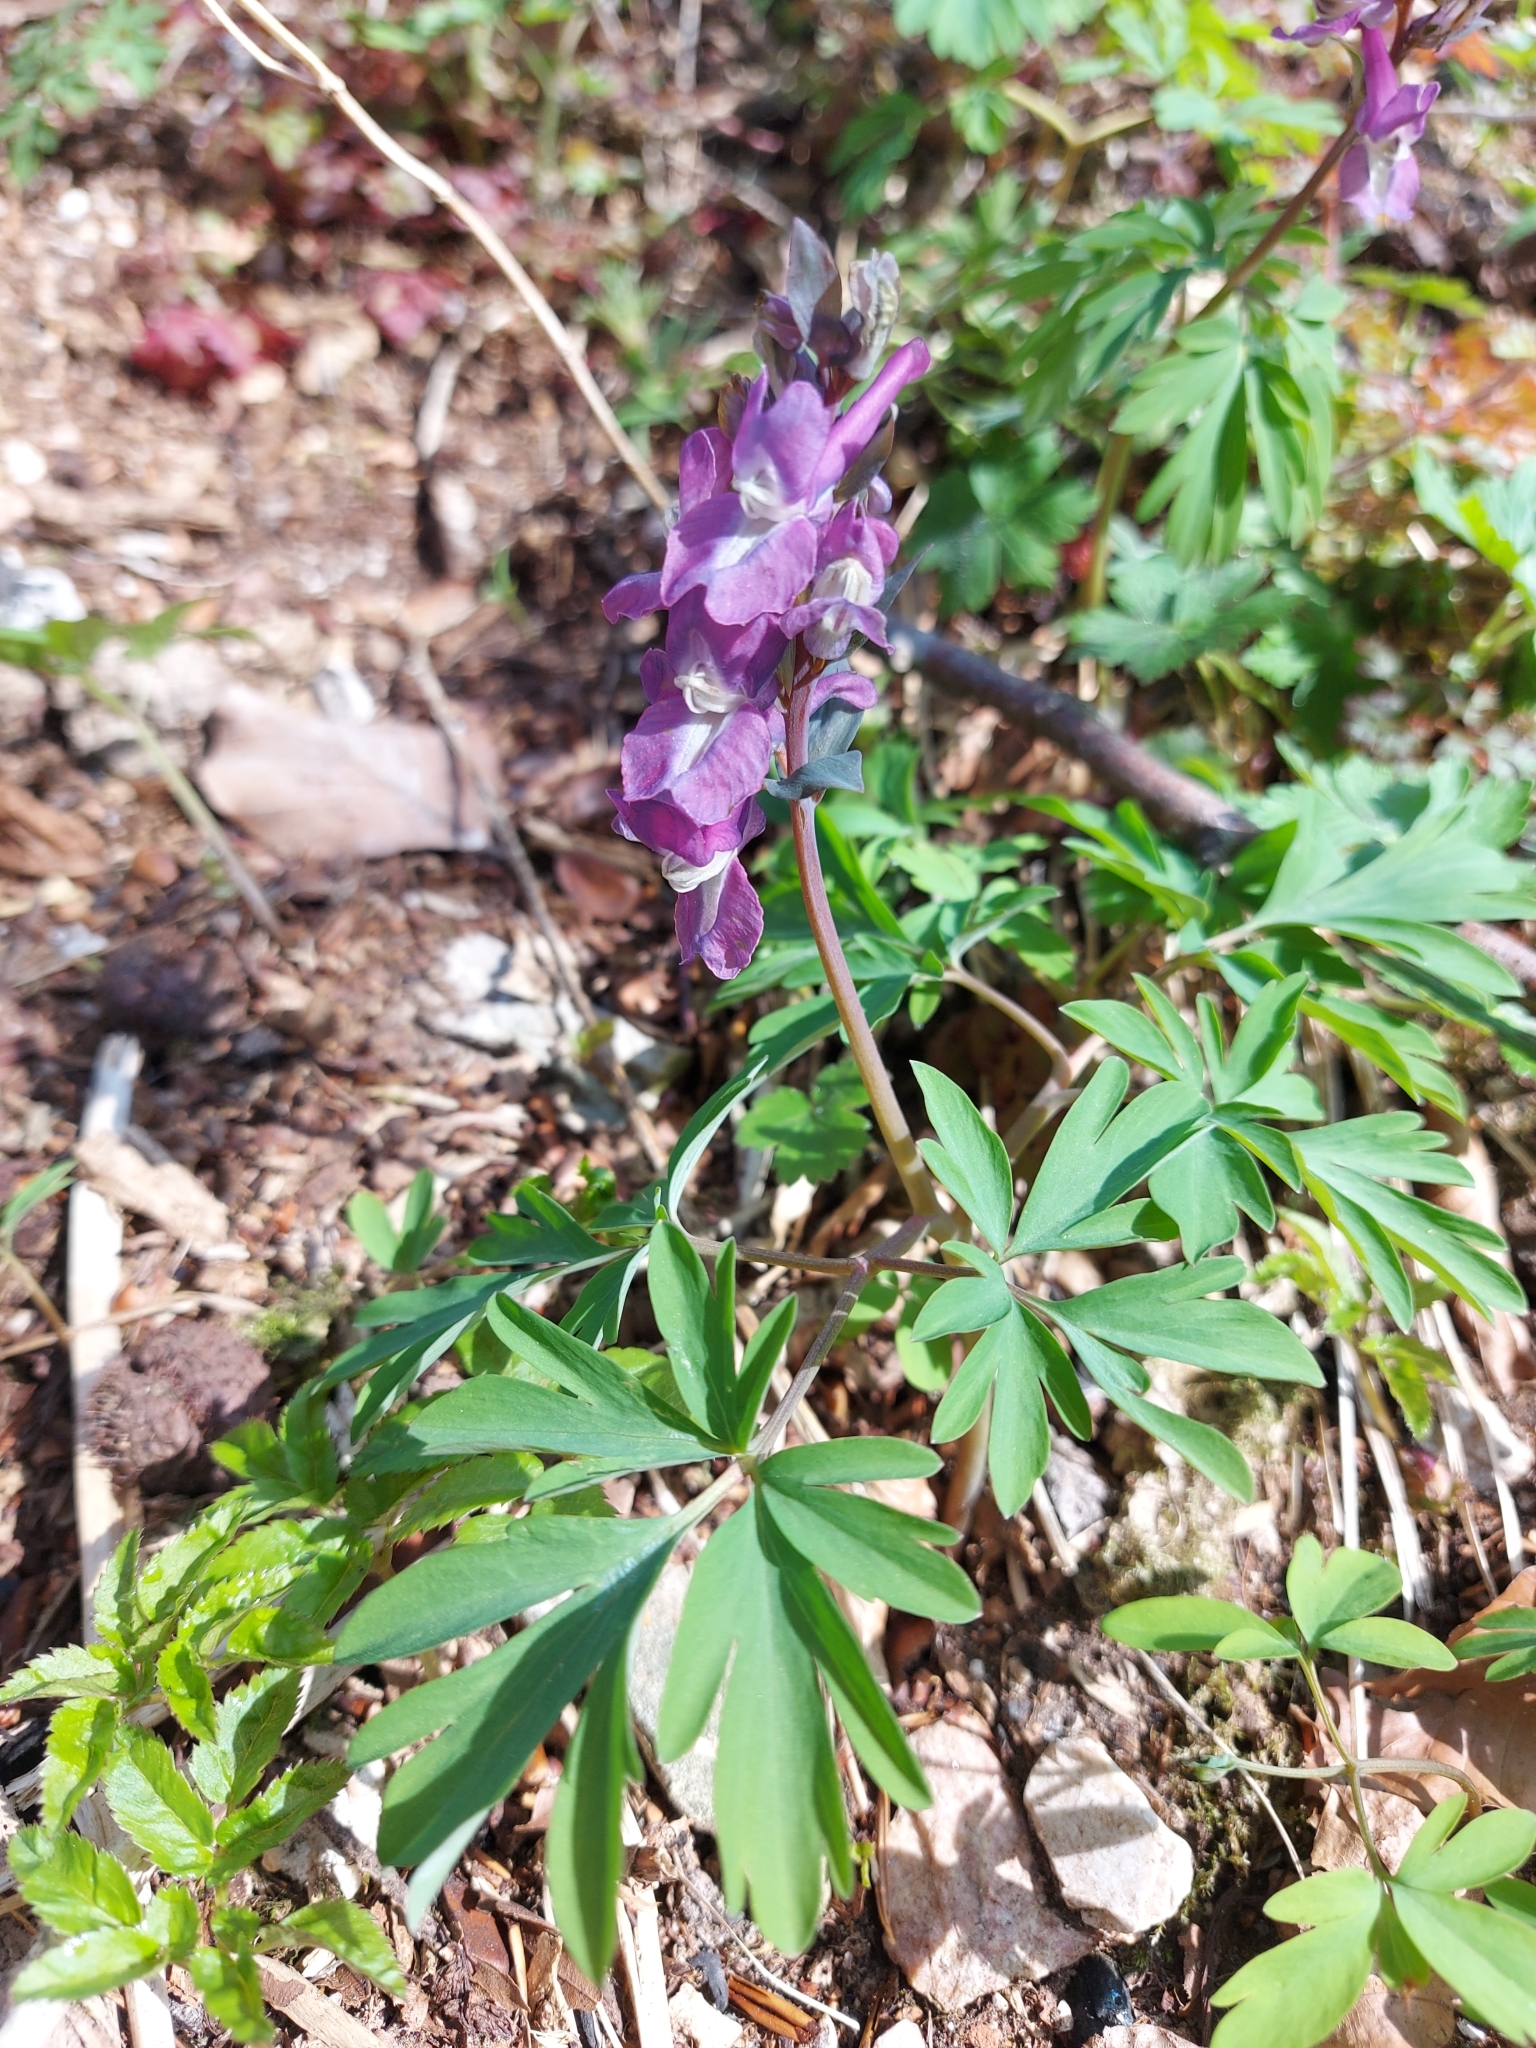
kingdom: Plantae
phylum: Tracheophyta
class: Magnoliopsida
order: Ranunculales
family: Papaveraceae
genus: Corydalis
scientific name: Corydalis cava
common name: Hollowroot
